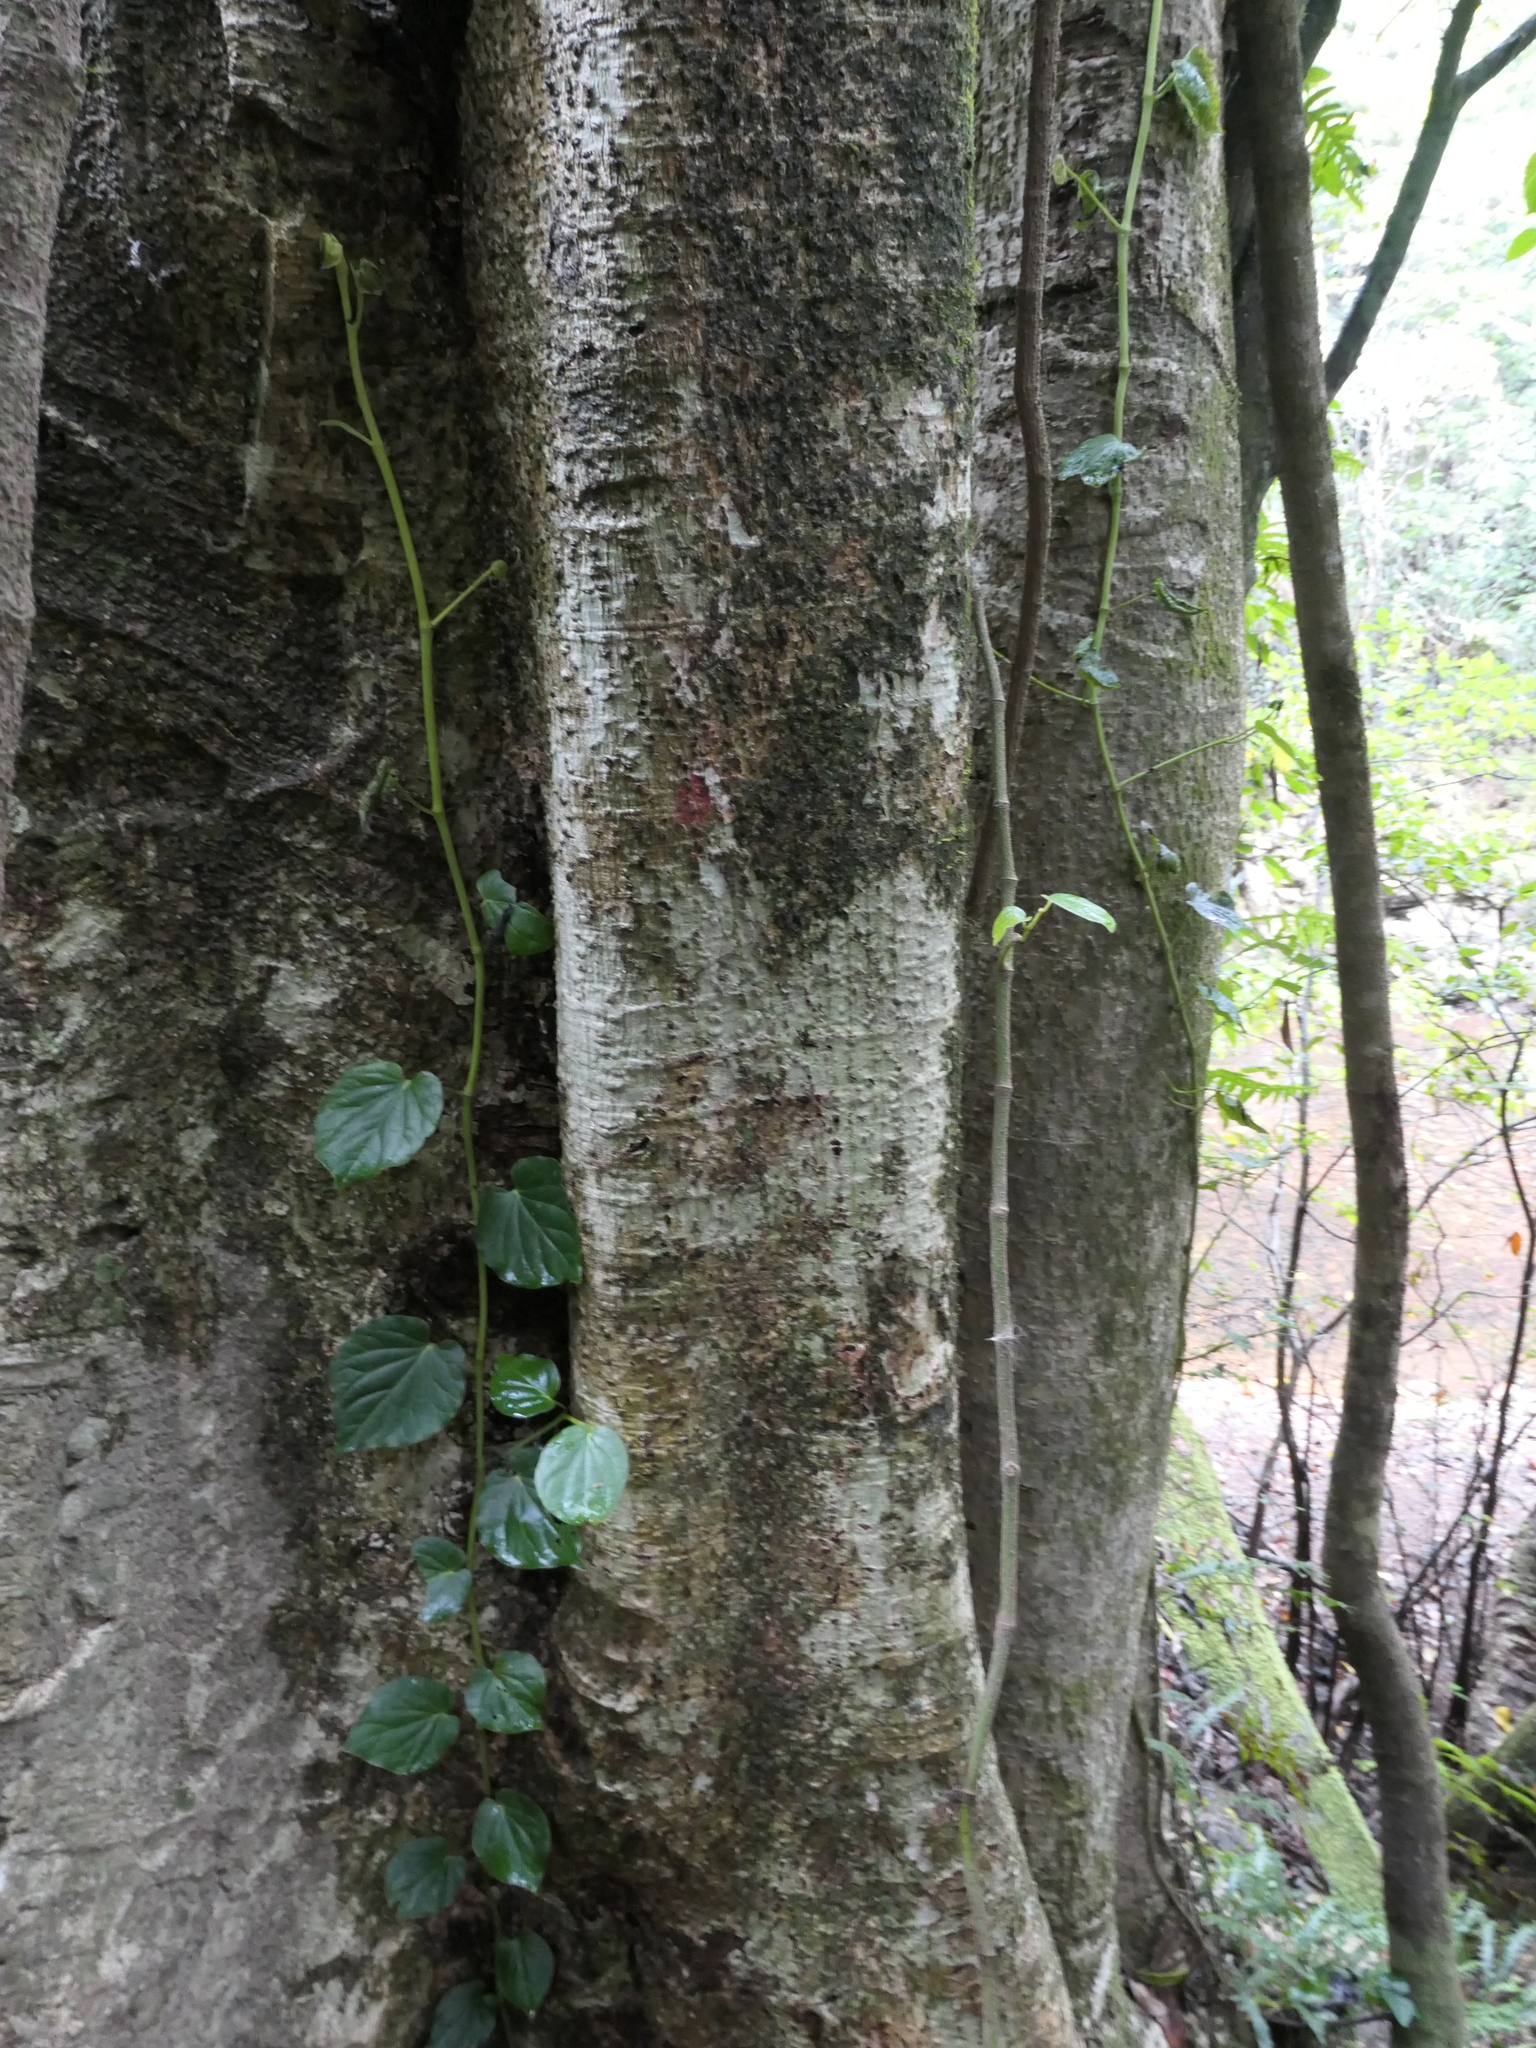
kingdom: Plantae
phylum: Tracheophyta
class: Magnoliopsida
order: Rosales
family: Urticaceae
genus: Dendrocnide
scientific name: Dendrocnide excelsa
